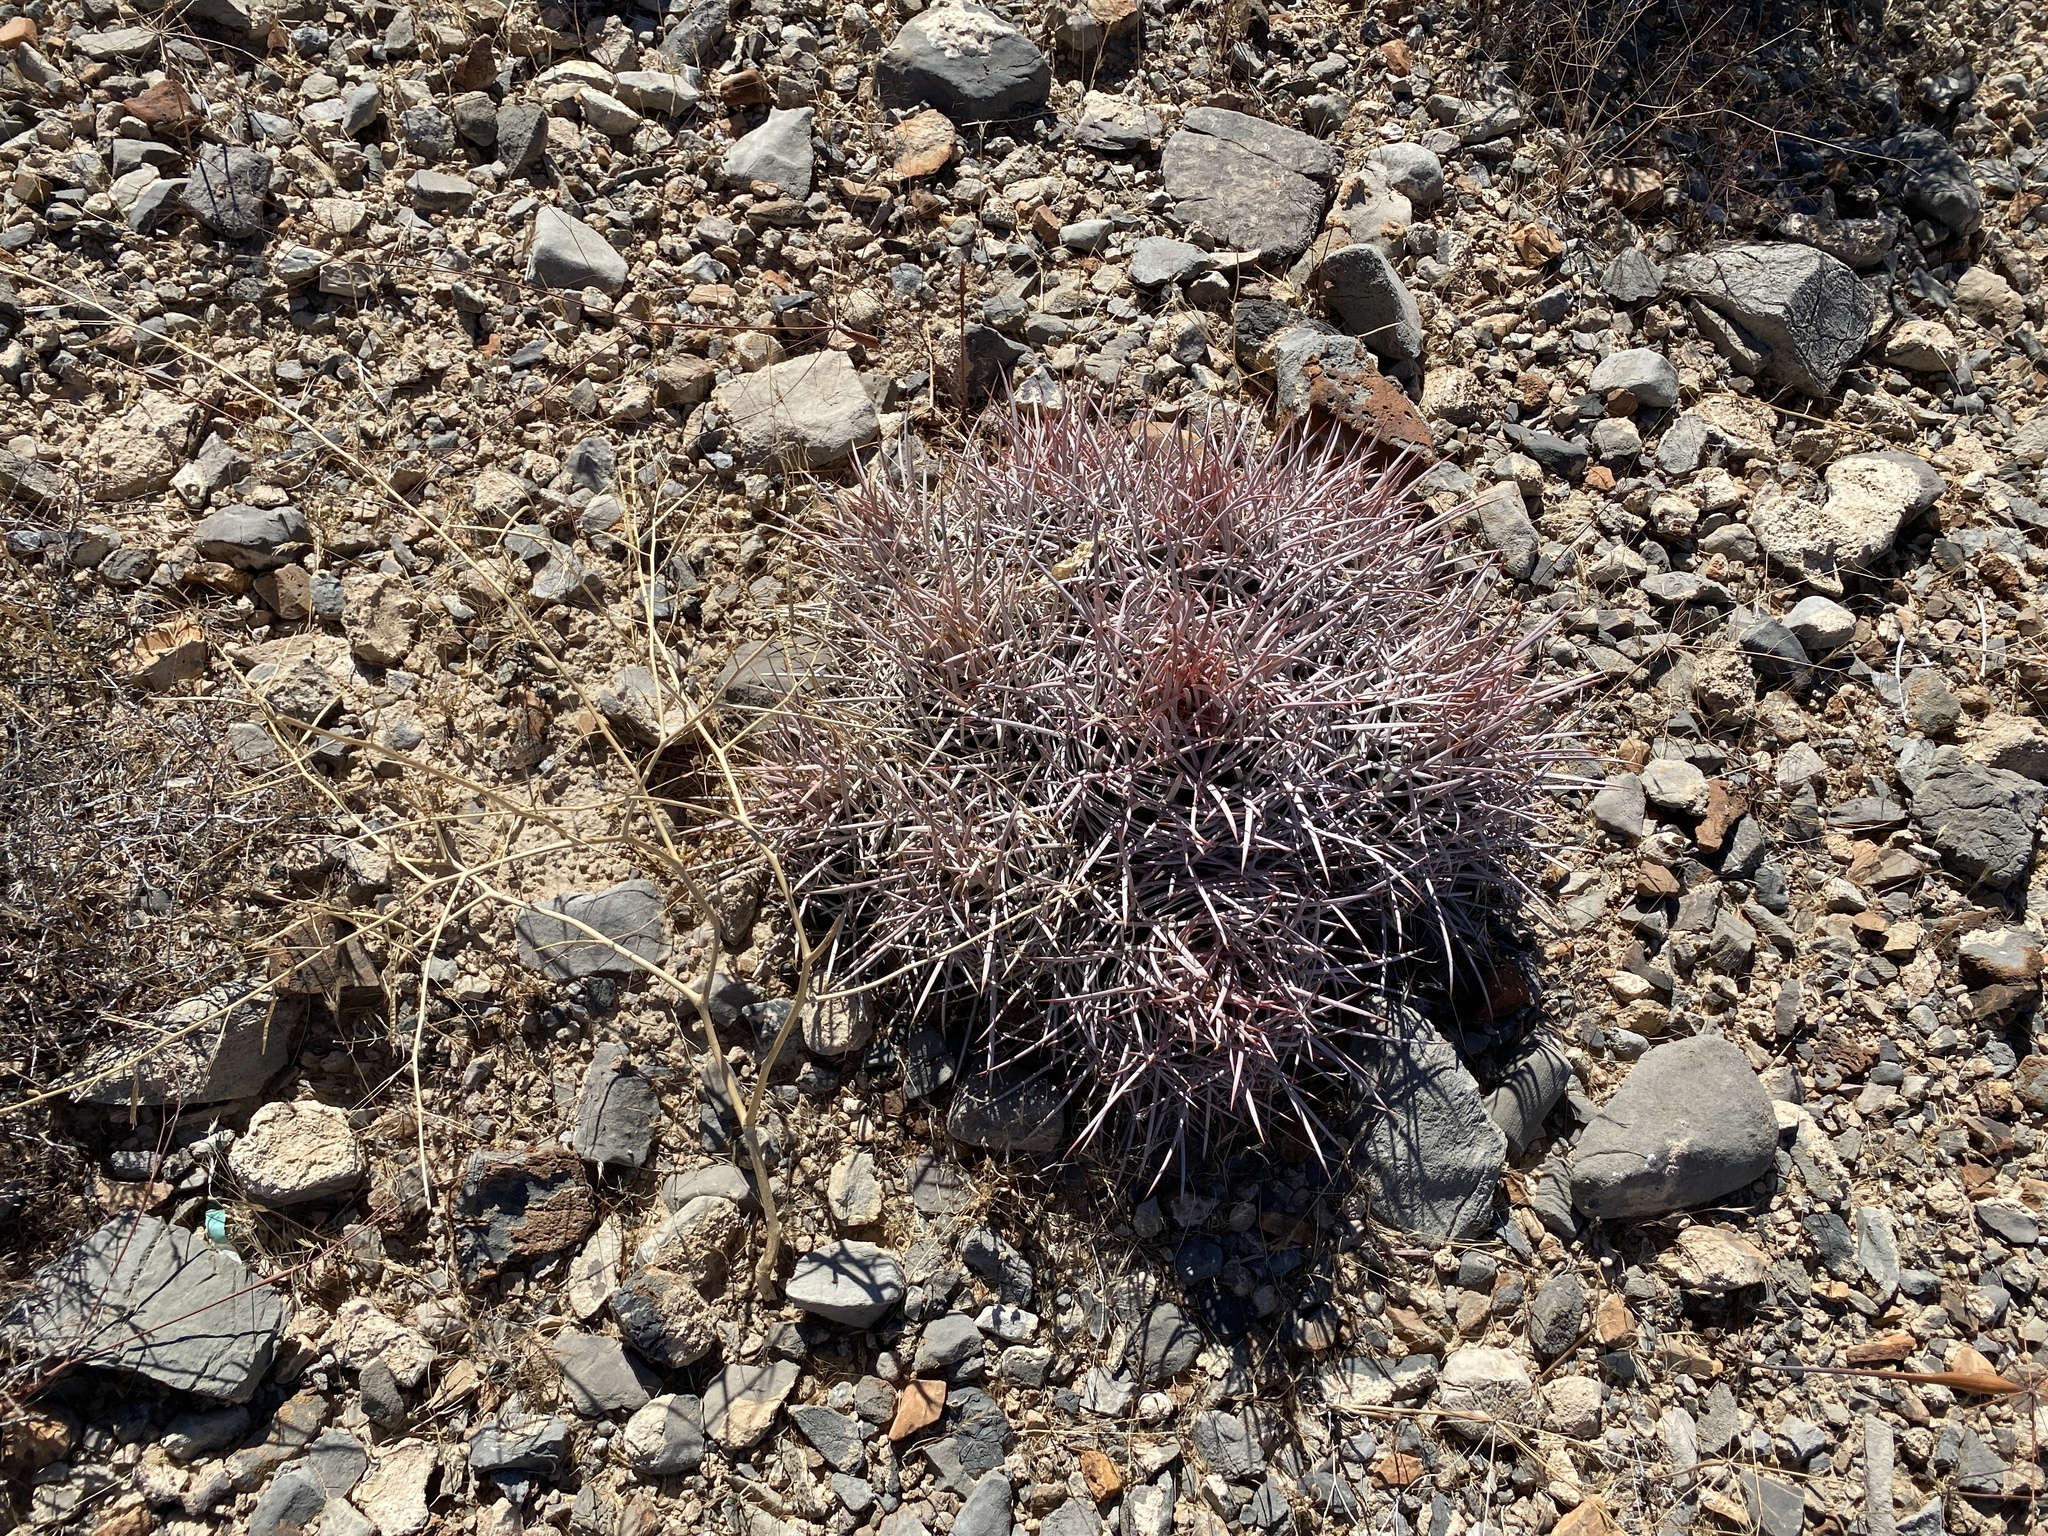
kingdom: Plantae
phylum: Tracheophyta
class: Magnoliopsida
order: Caryophyllales
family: Cactaceae
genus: Echinocactus
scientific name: Echinocactus polycephalus
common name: Cottontop cactus
